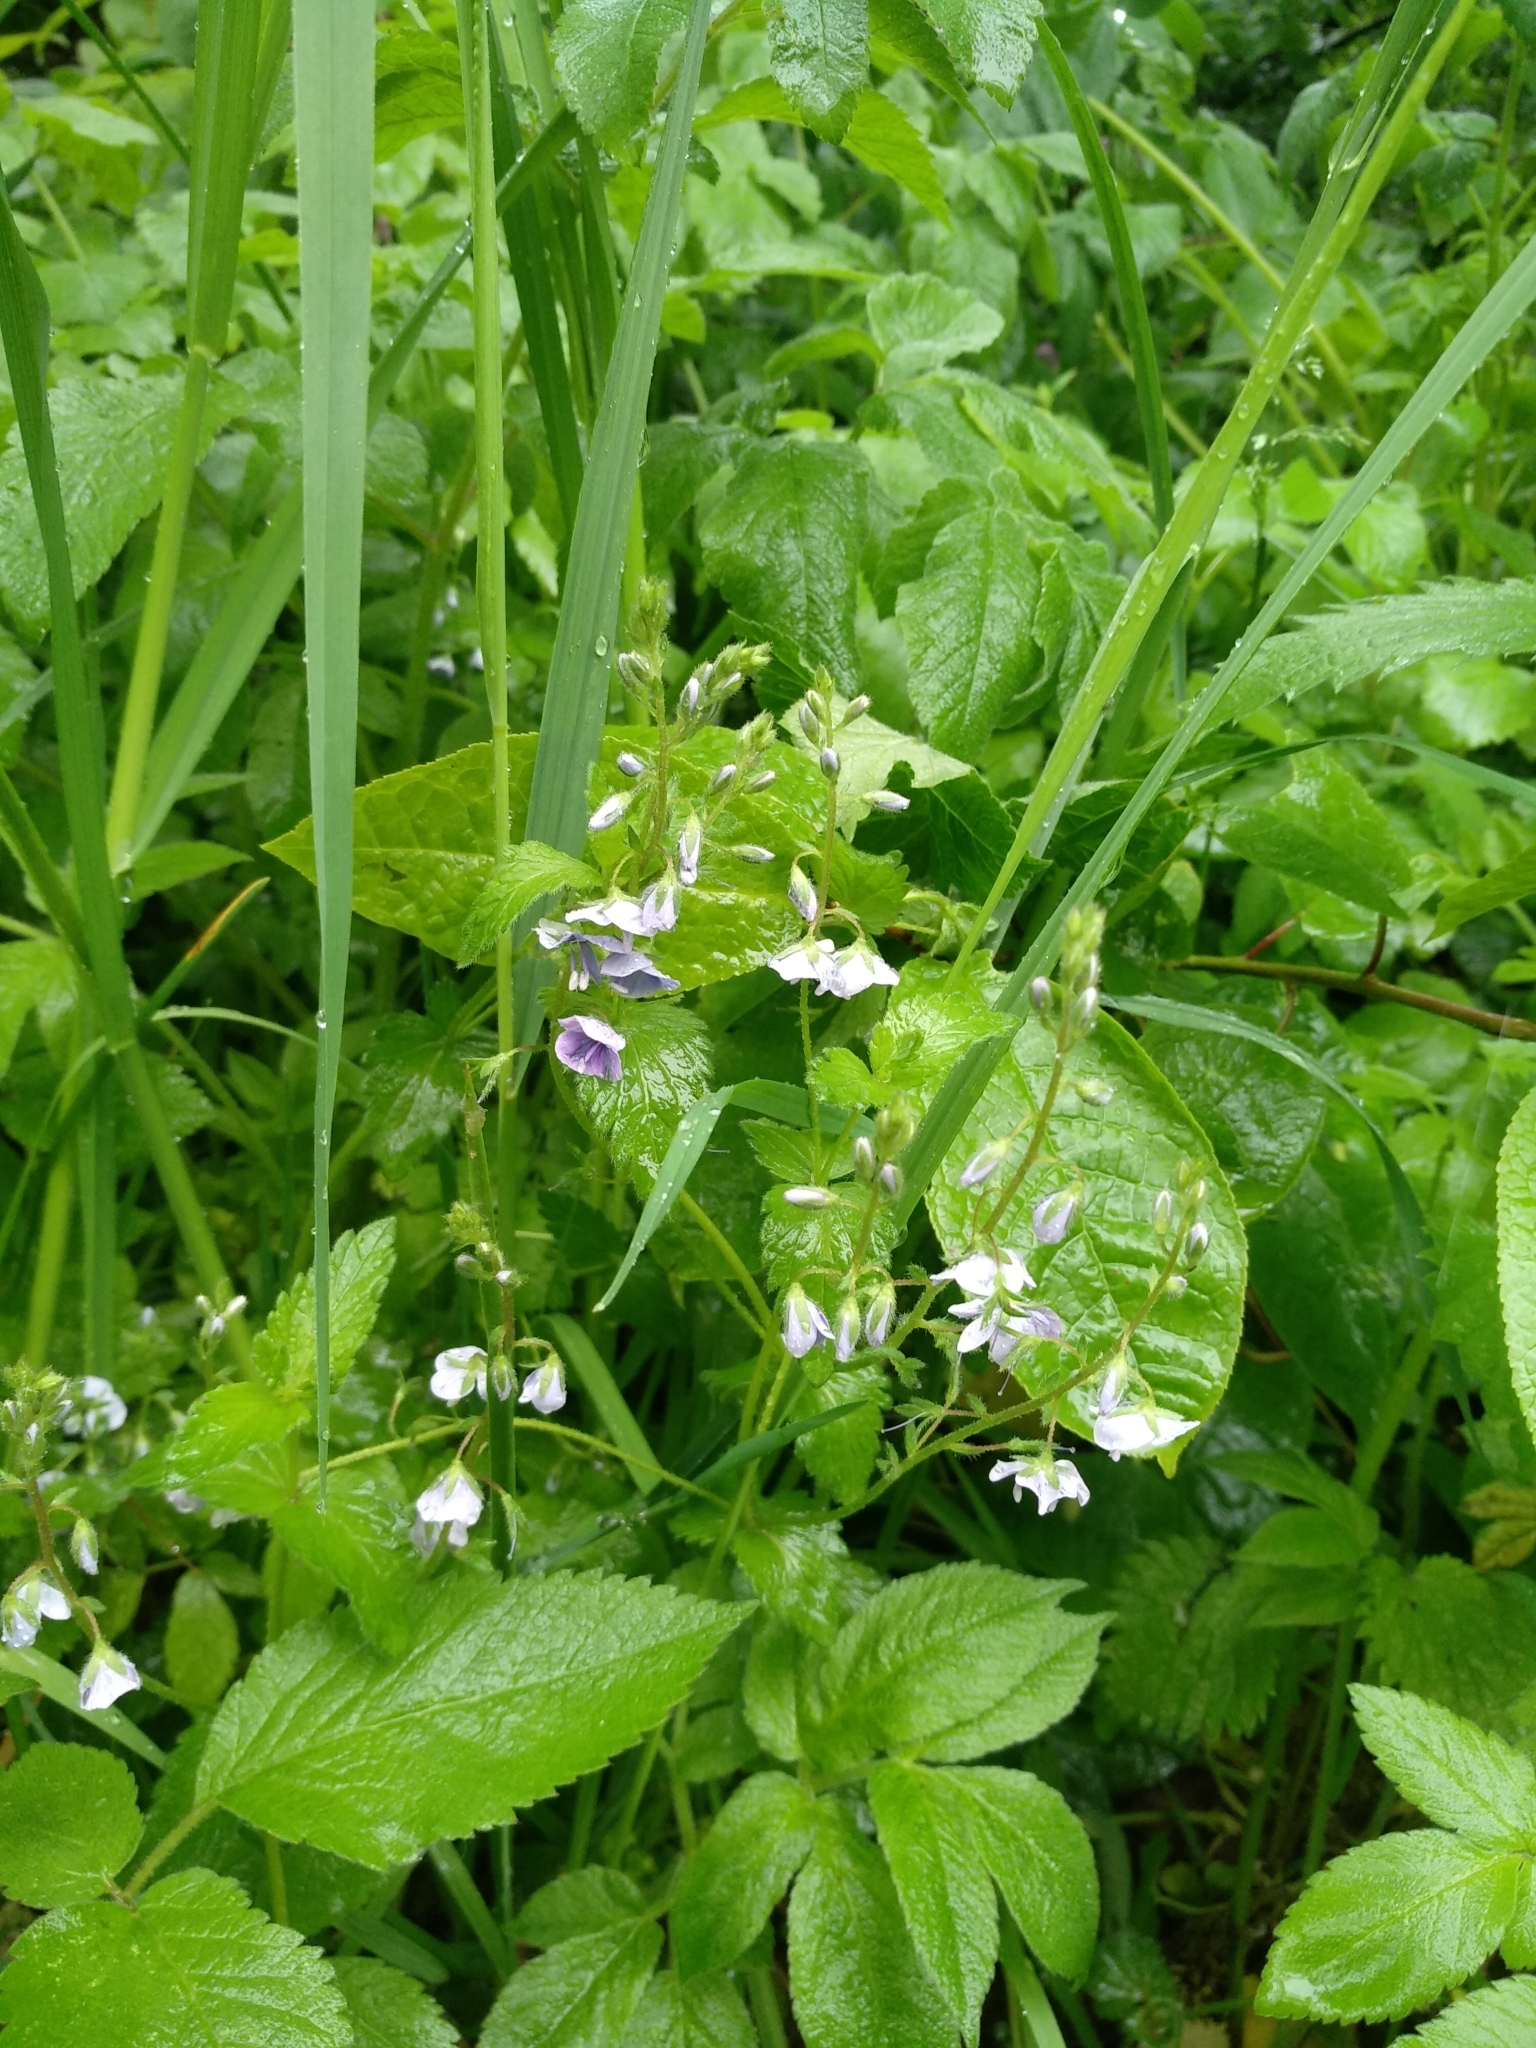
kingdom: Plantae
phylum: Tracheophyta
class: Magnoliopsida
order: Lamiales
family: Plantaginaceae
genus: Veronica
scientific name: Veronica chamaedrys
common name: Germander speedwell
